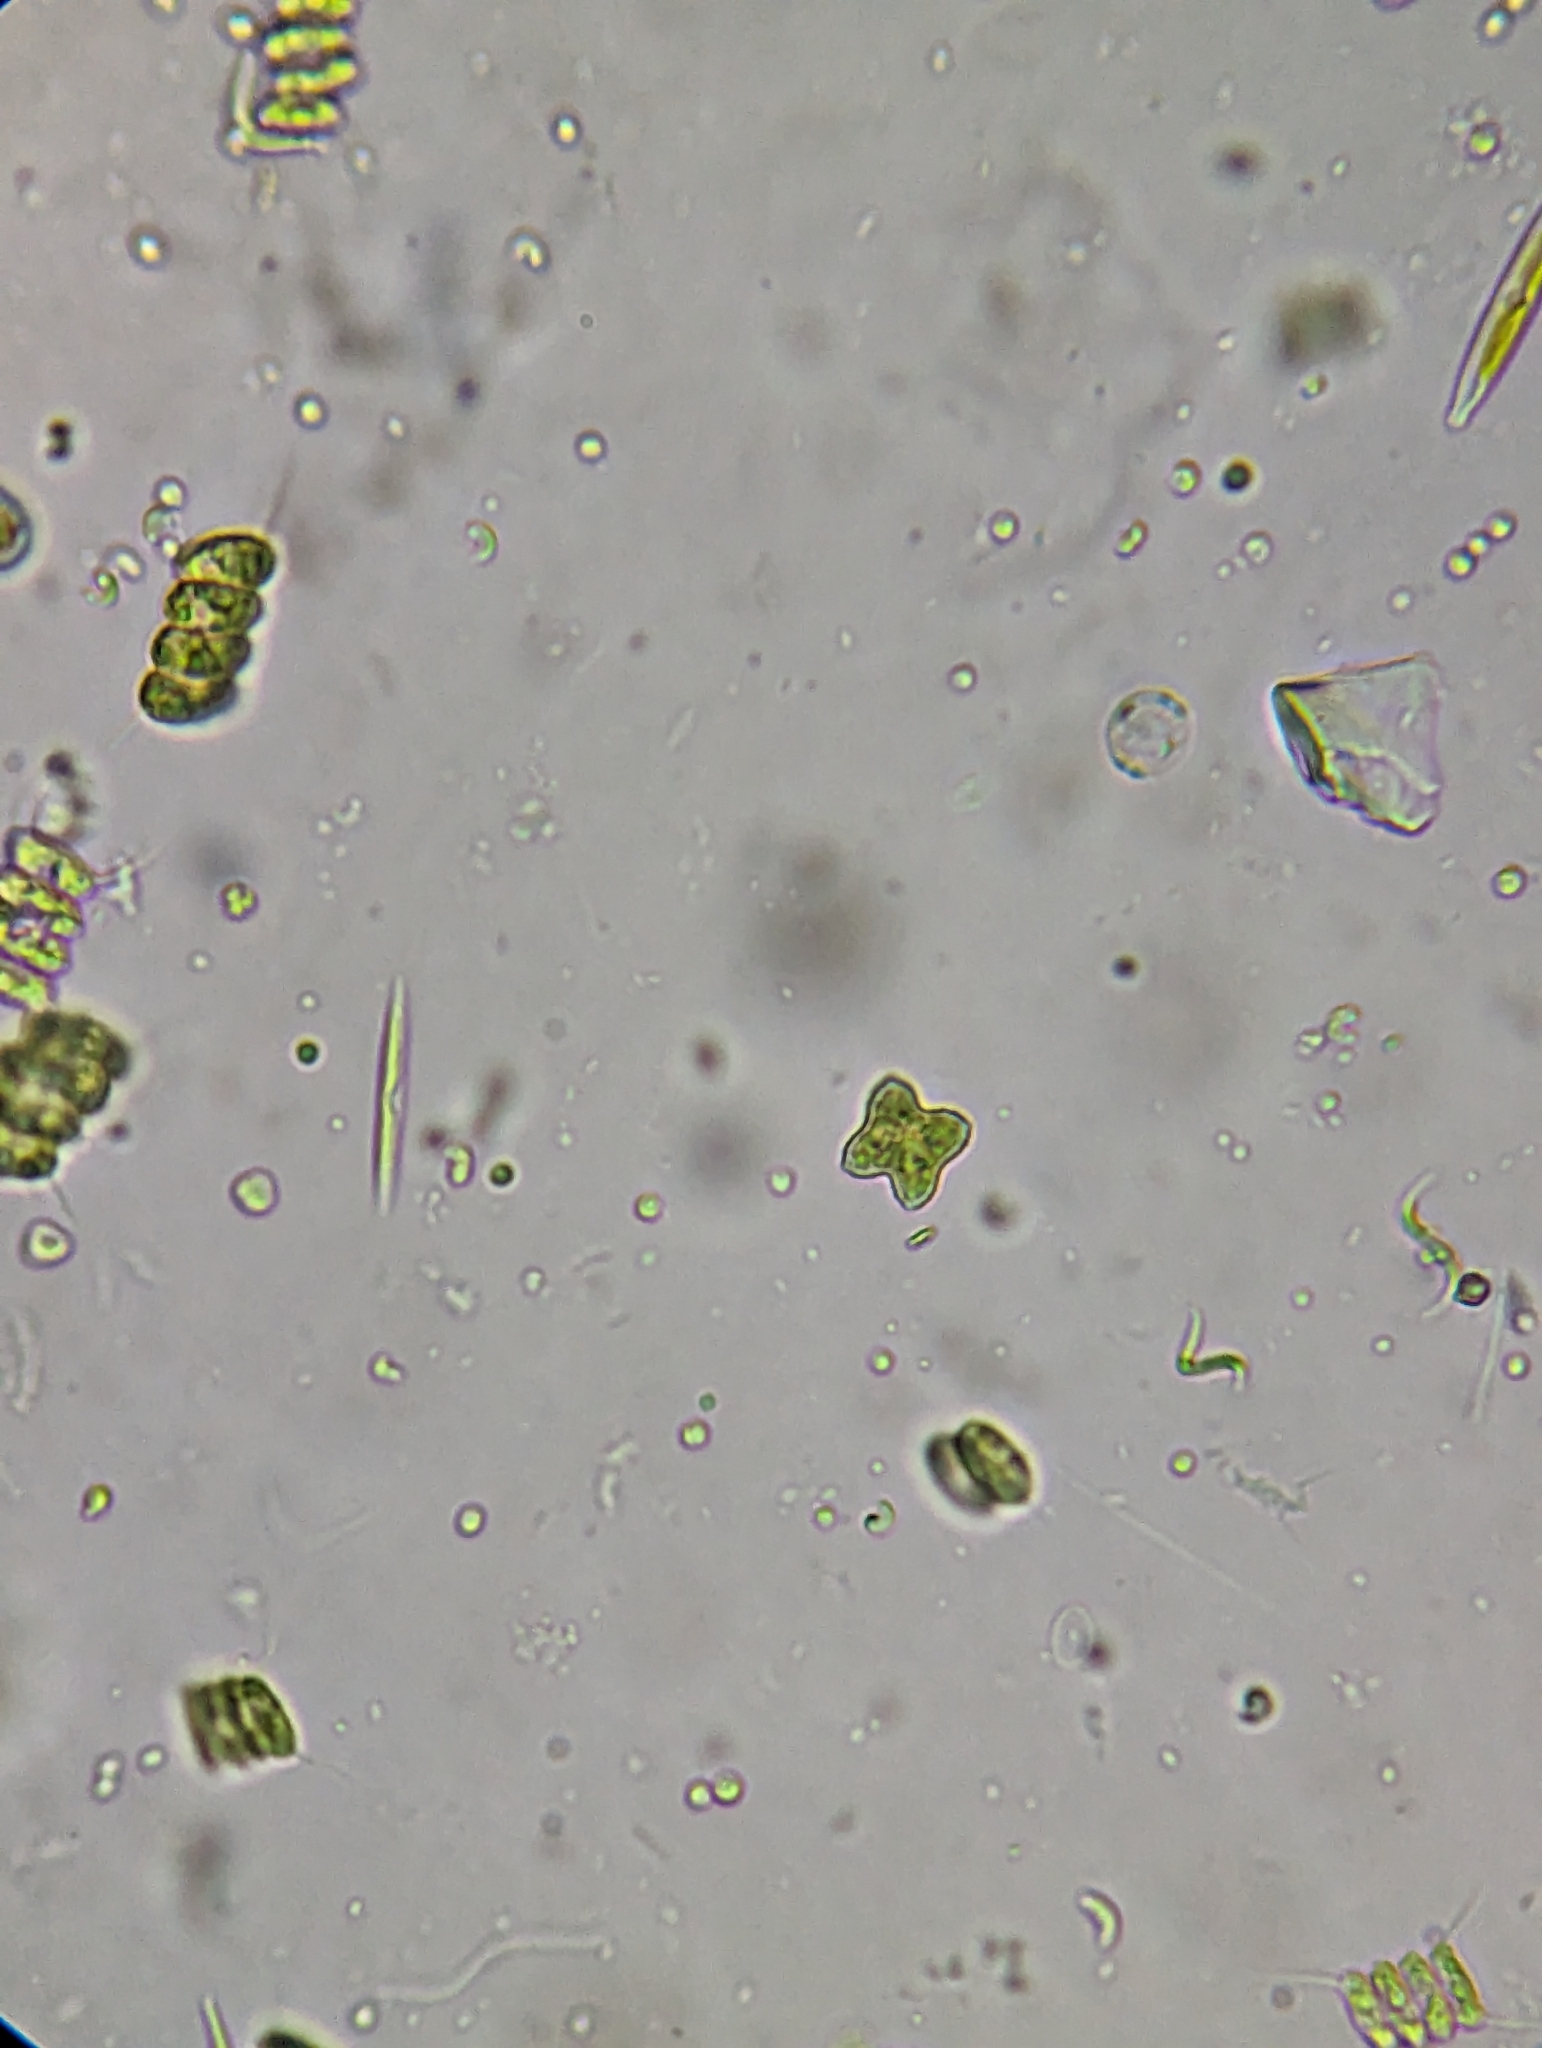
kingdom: Plantae
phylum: Chlorophyta
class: Chlorophyceae
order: Sphaeropleales
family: Hydrodictyaceae
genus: Tetraedron
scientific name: Tetraedron minimum
